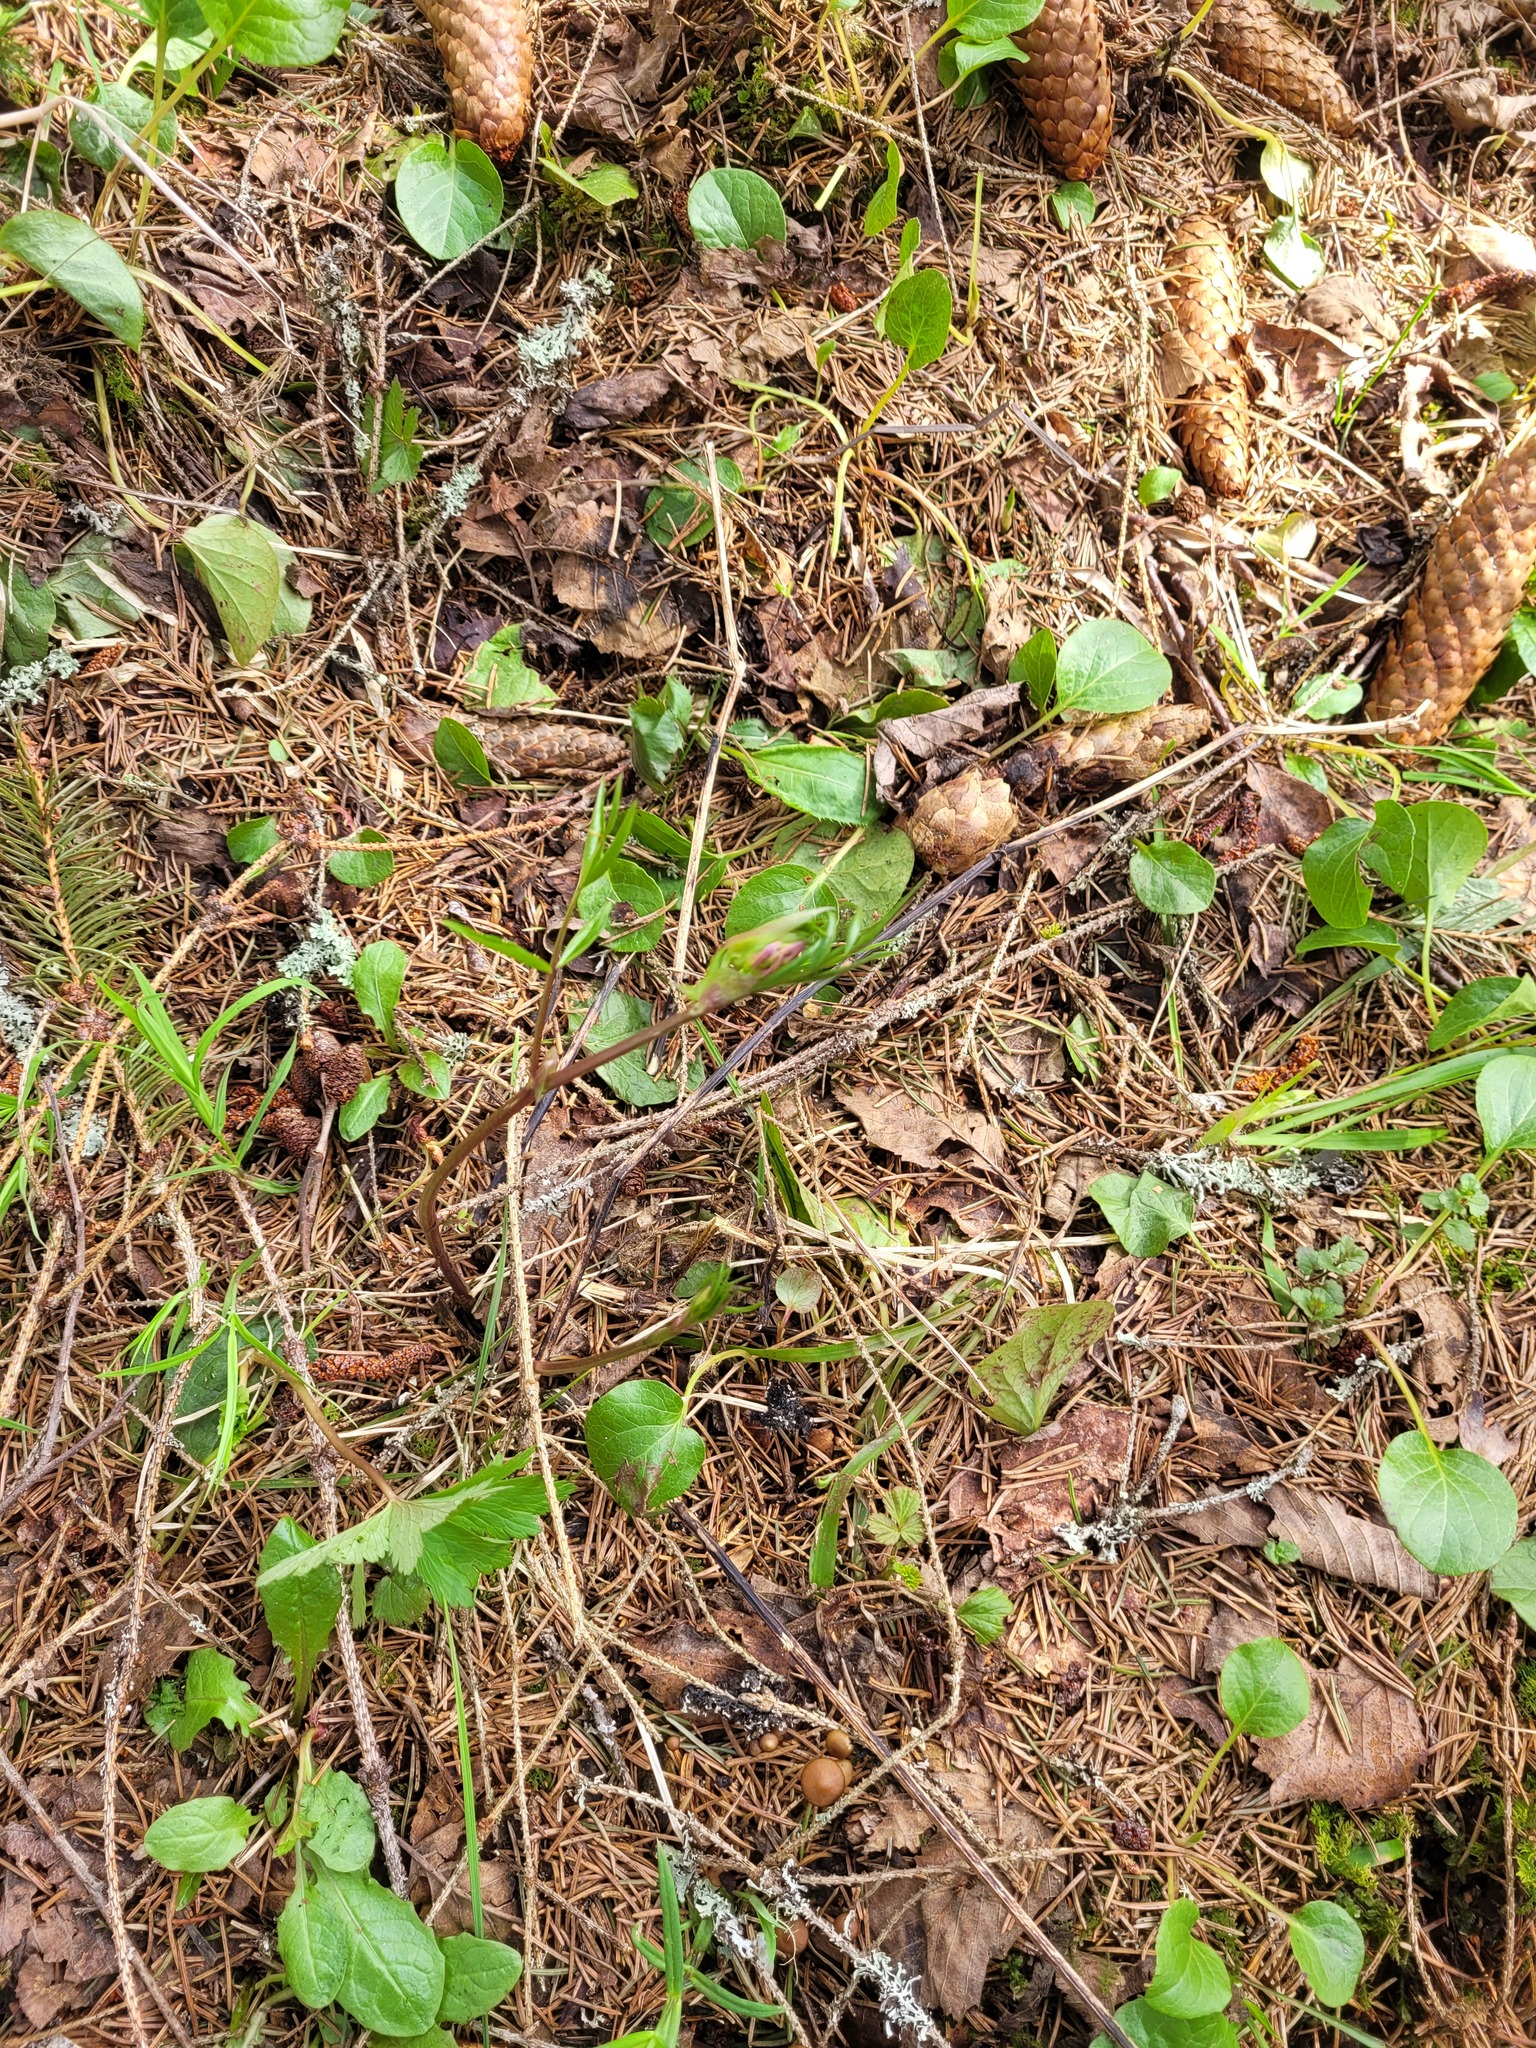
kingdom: Plantae
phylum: Tracheophyta
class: Magnoliopsida
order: Fabales
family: Fabaceae
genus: Lathyrus
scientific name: Lathyrus vernus
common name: Spring pea
